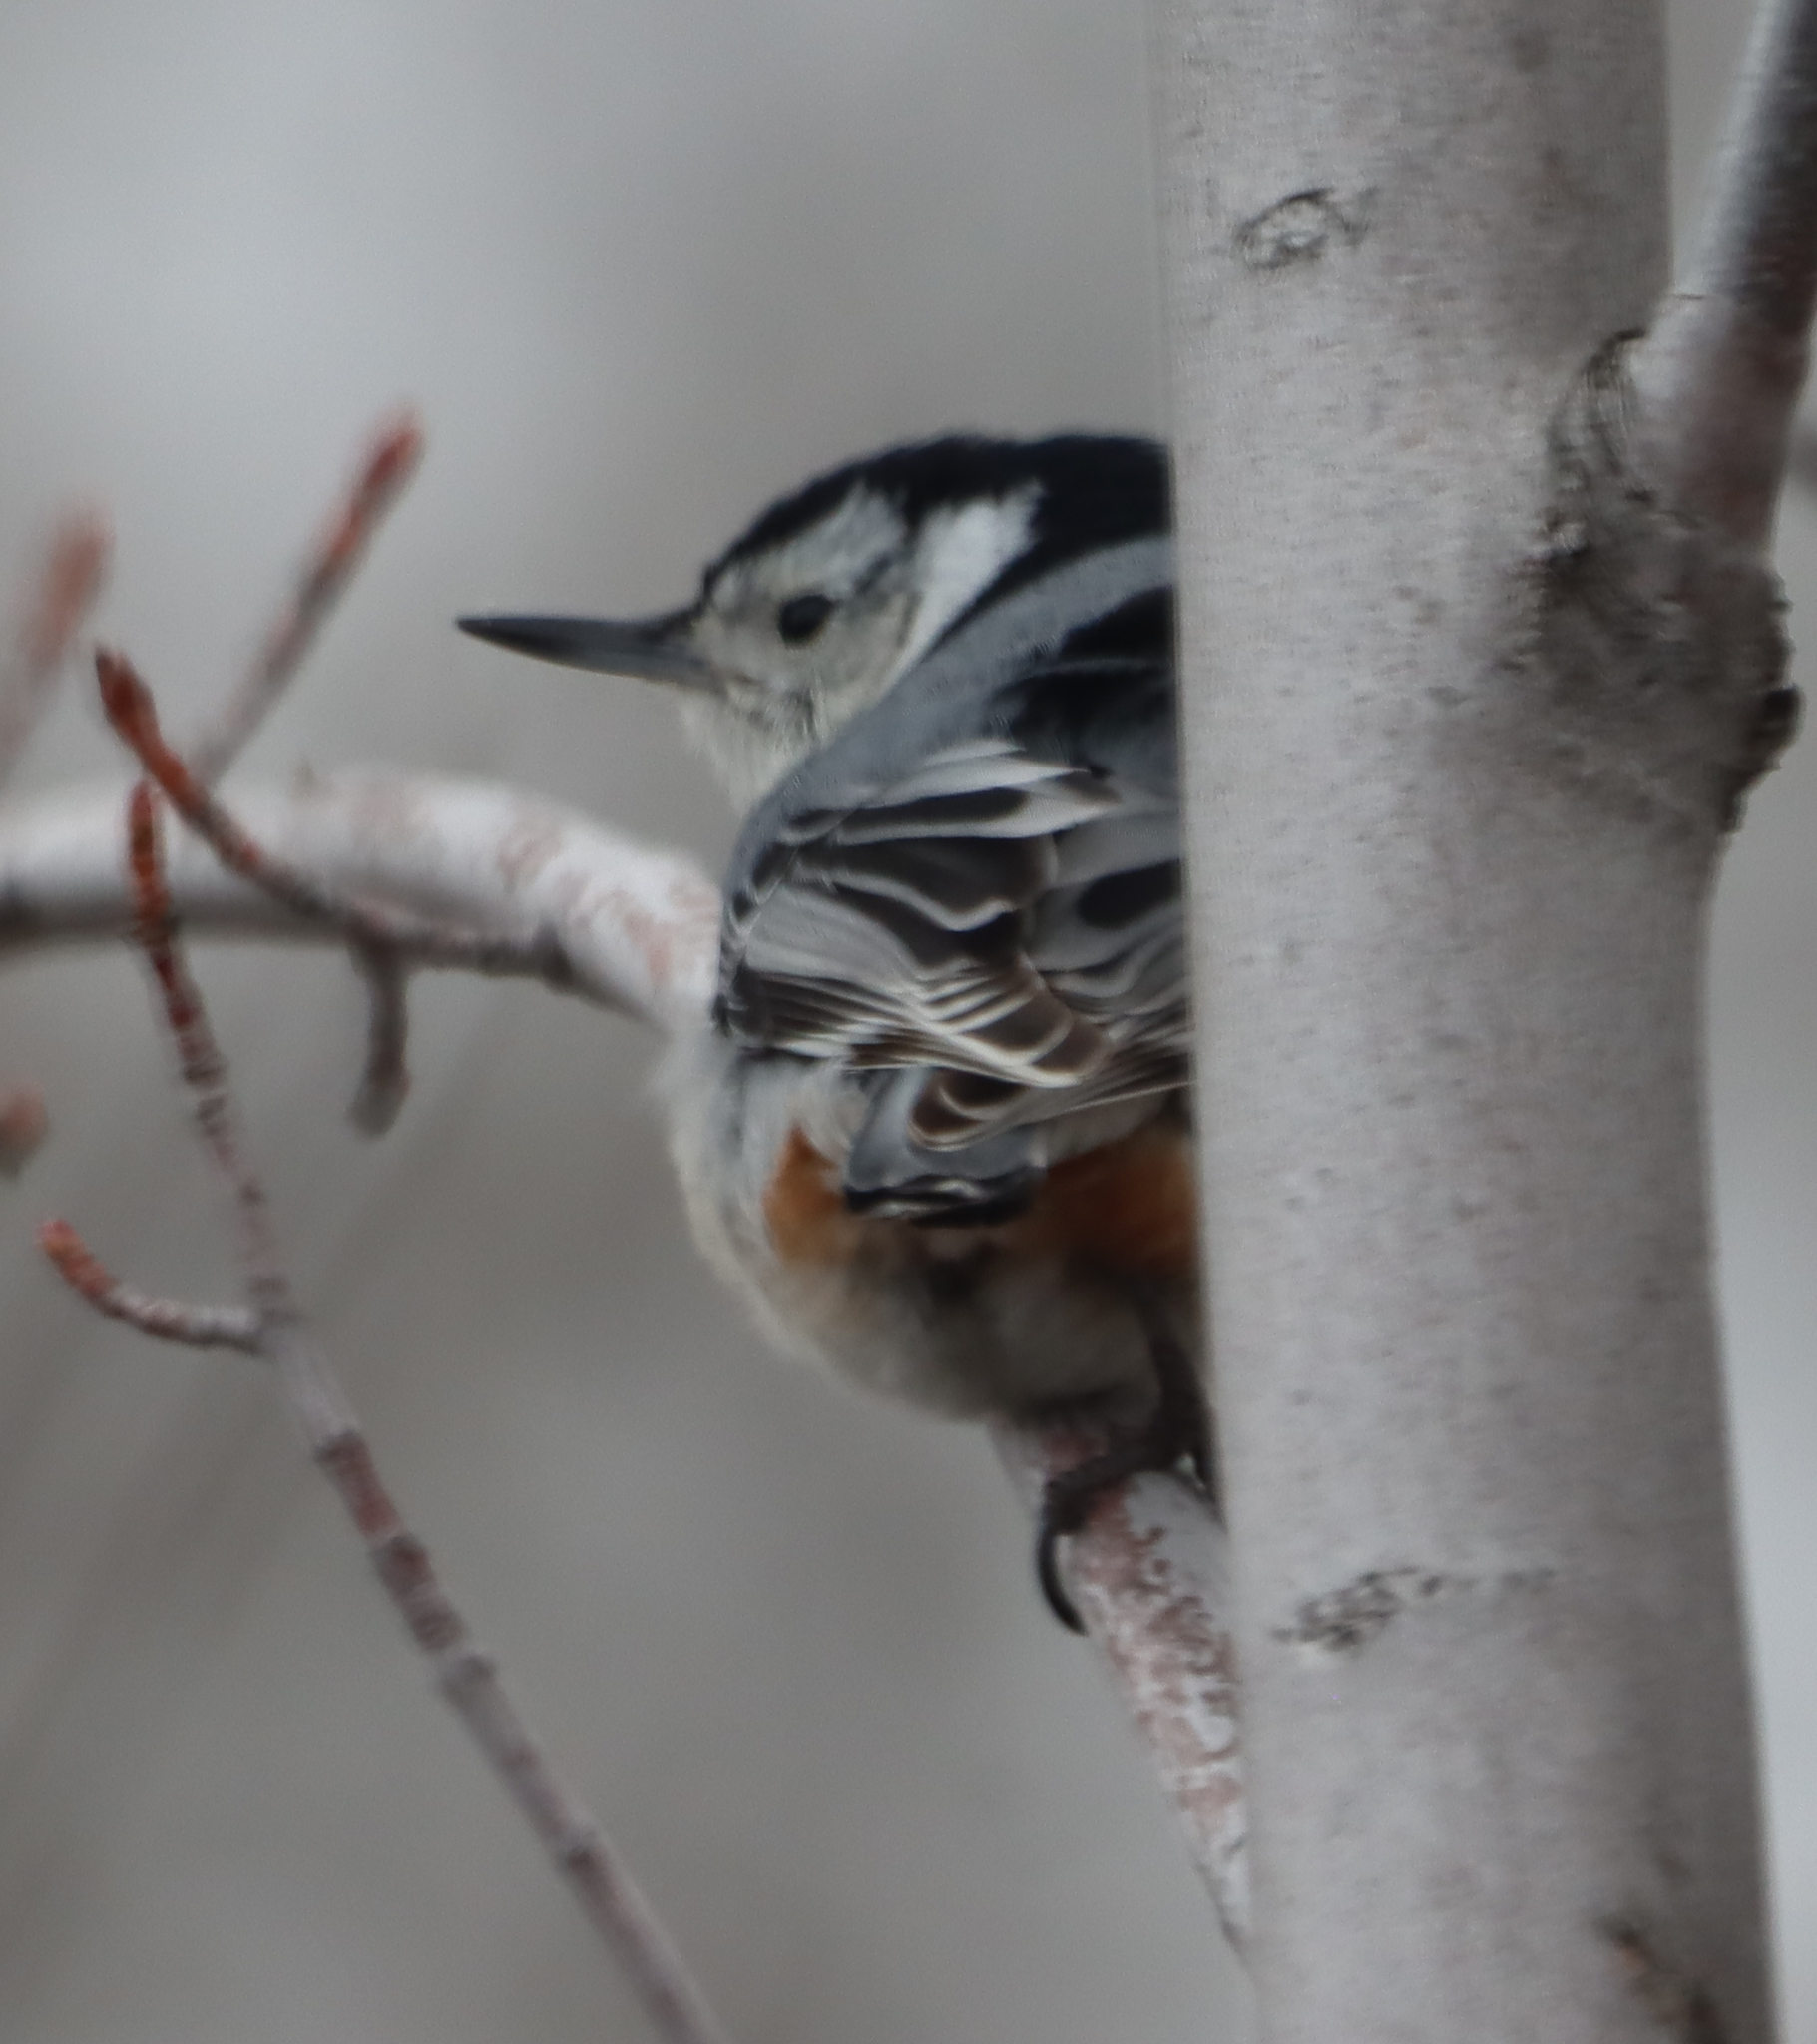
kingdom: Animalia
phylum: Chordata
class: Aves
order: Passeriformes
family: Sittidae
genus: Sitta
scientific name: Sitta carolinensis
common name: White-breasted nuthatch
